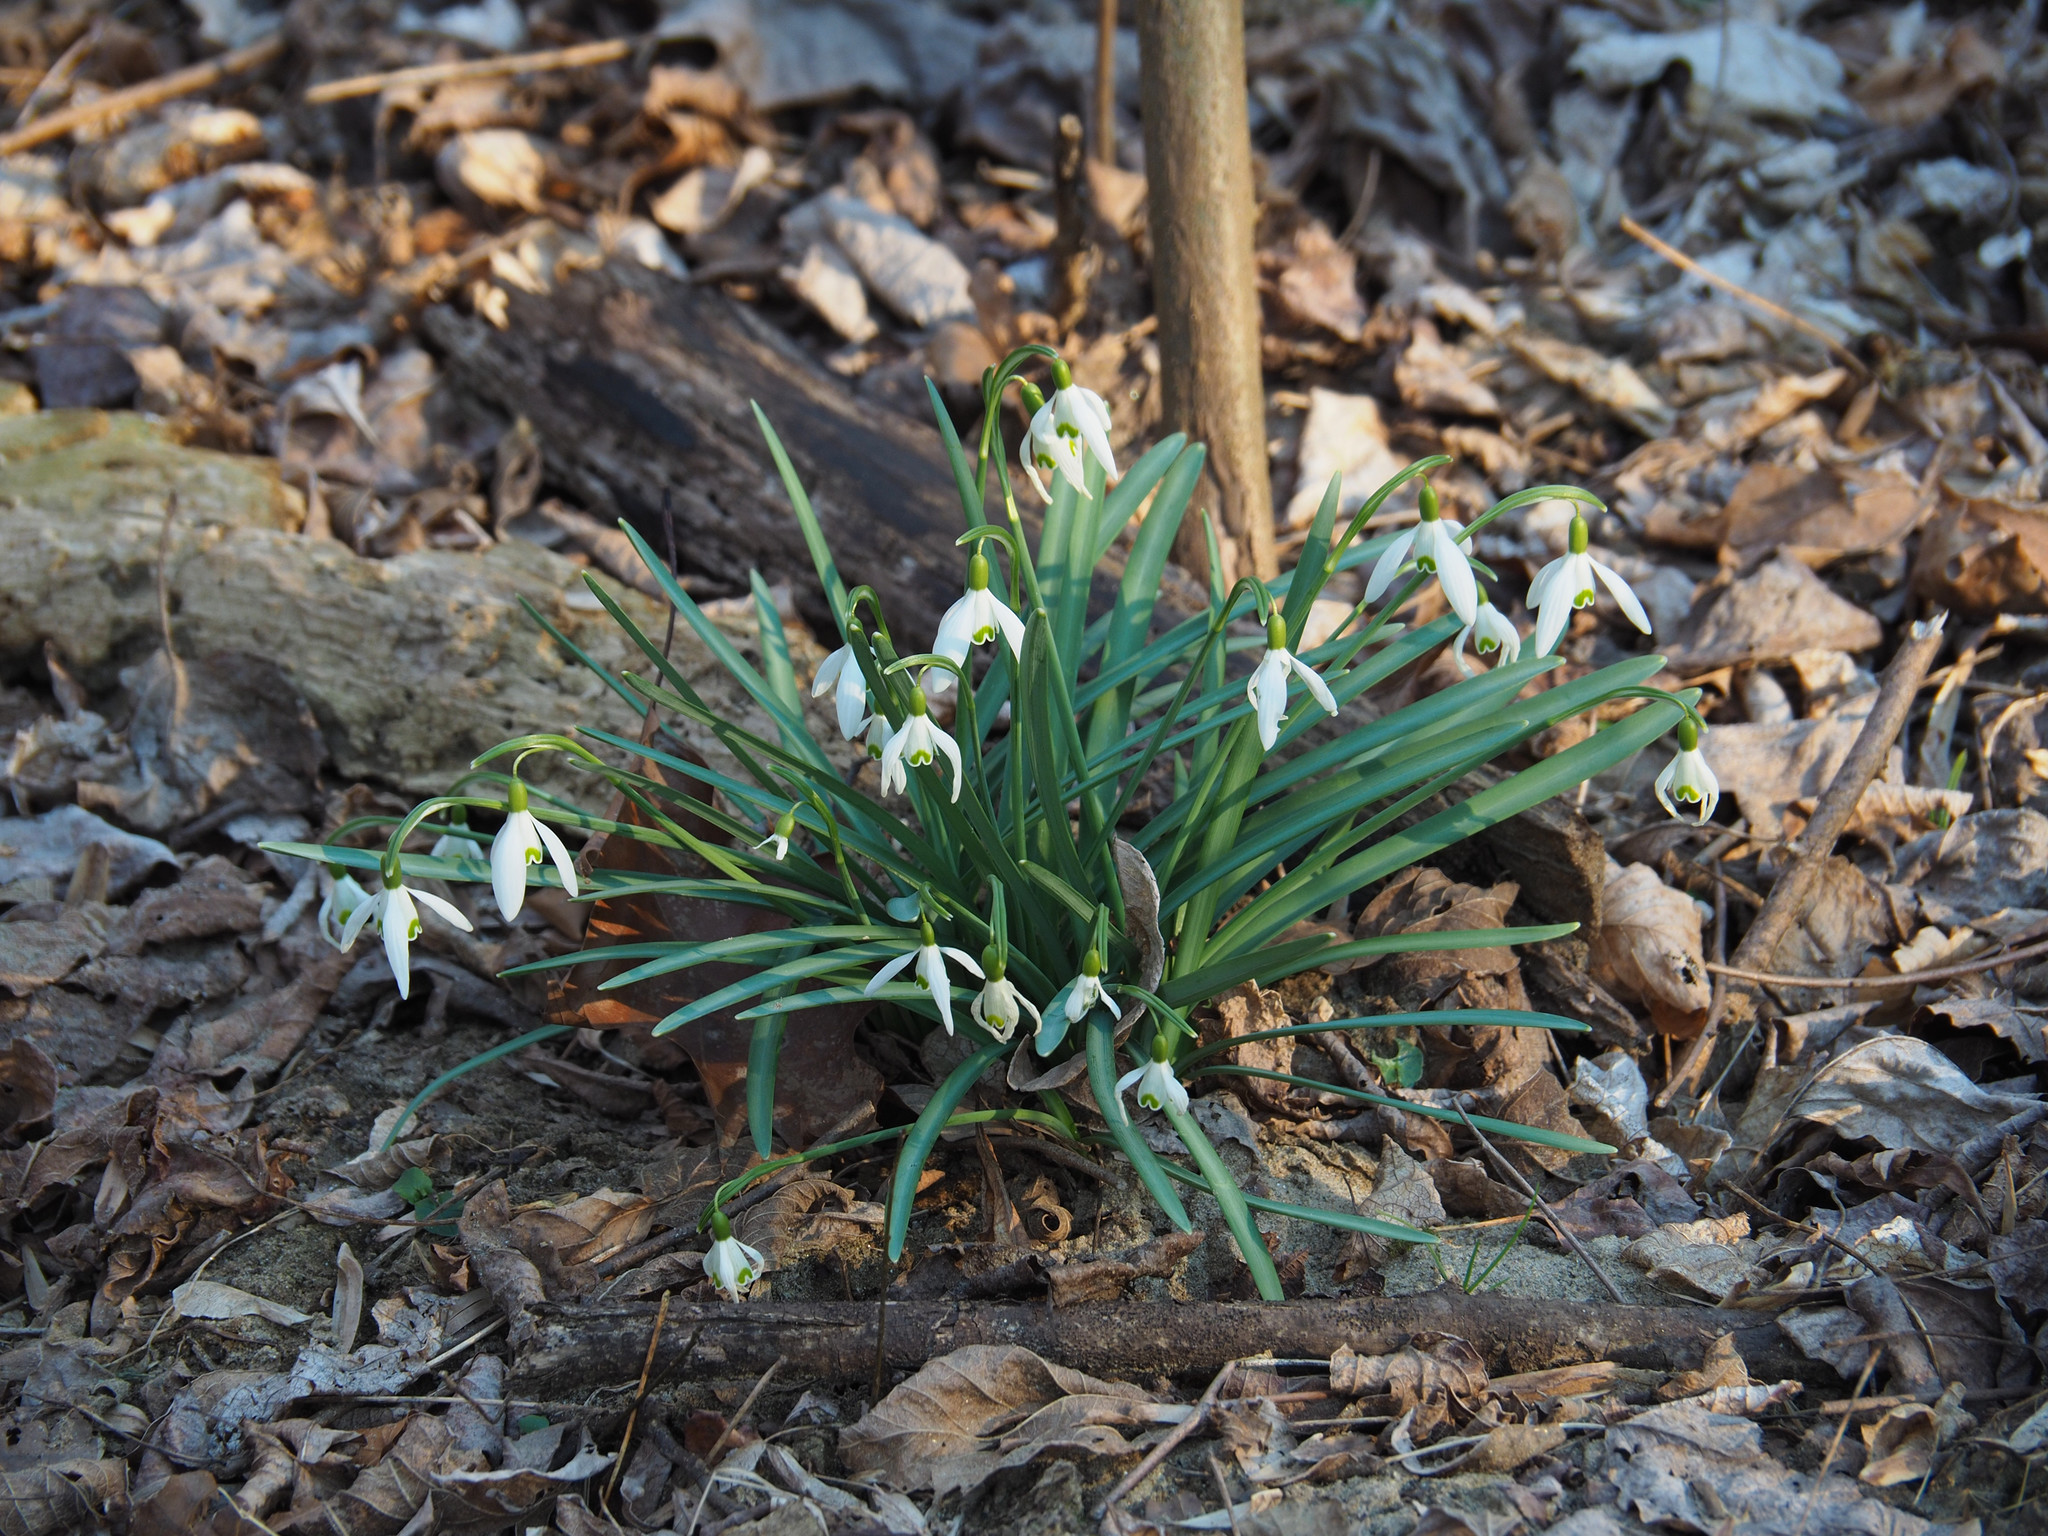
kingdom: Plantae
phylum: Tracheophyta
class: Liliopsida
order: Asparagales
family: Amaryllidaceae
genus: Galanthus
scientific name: Galanthus nivalis
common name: Snowdrop
